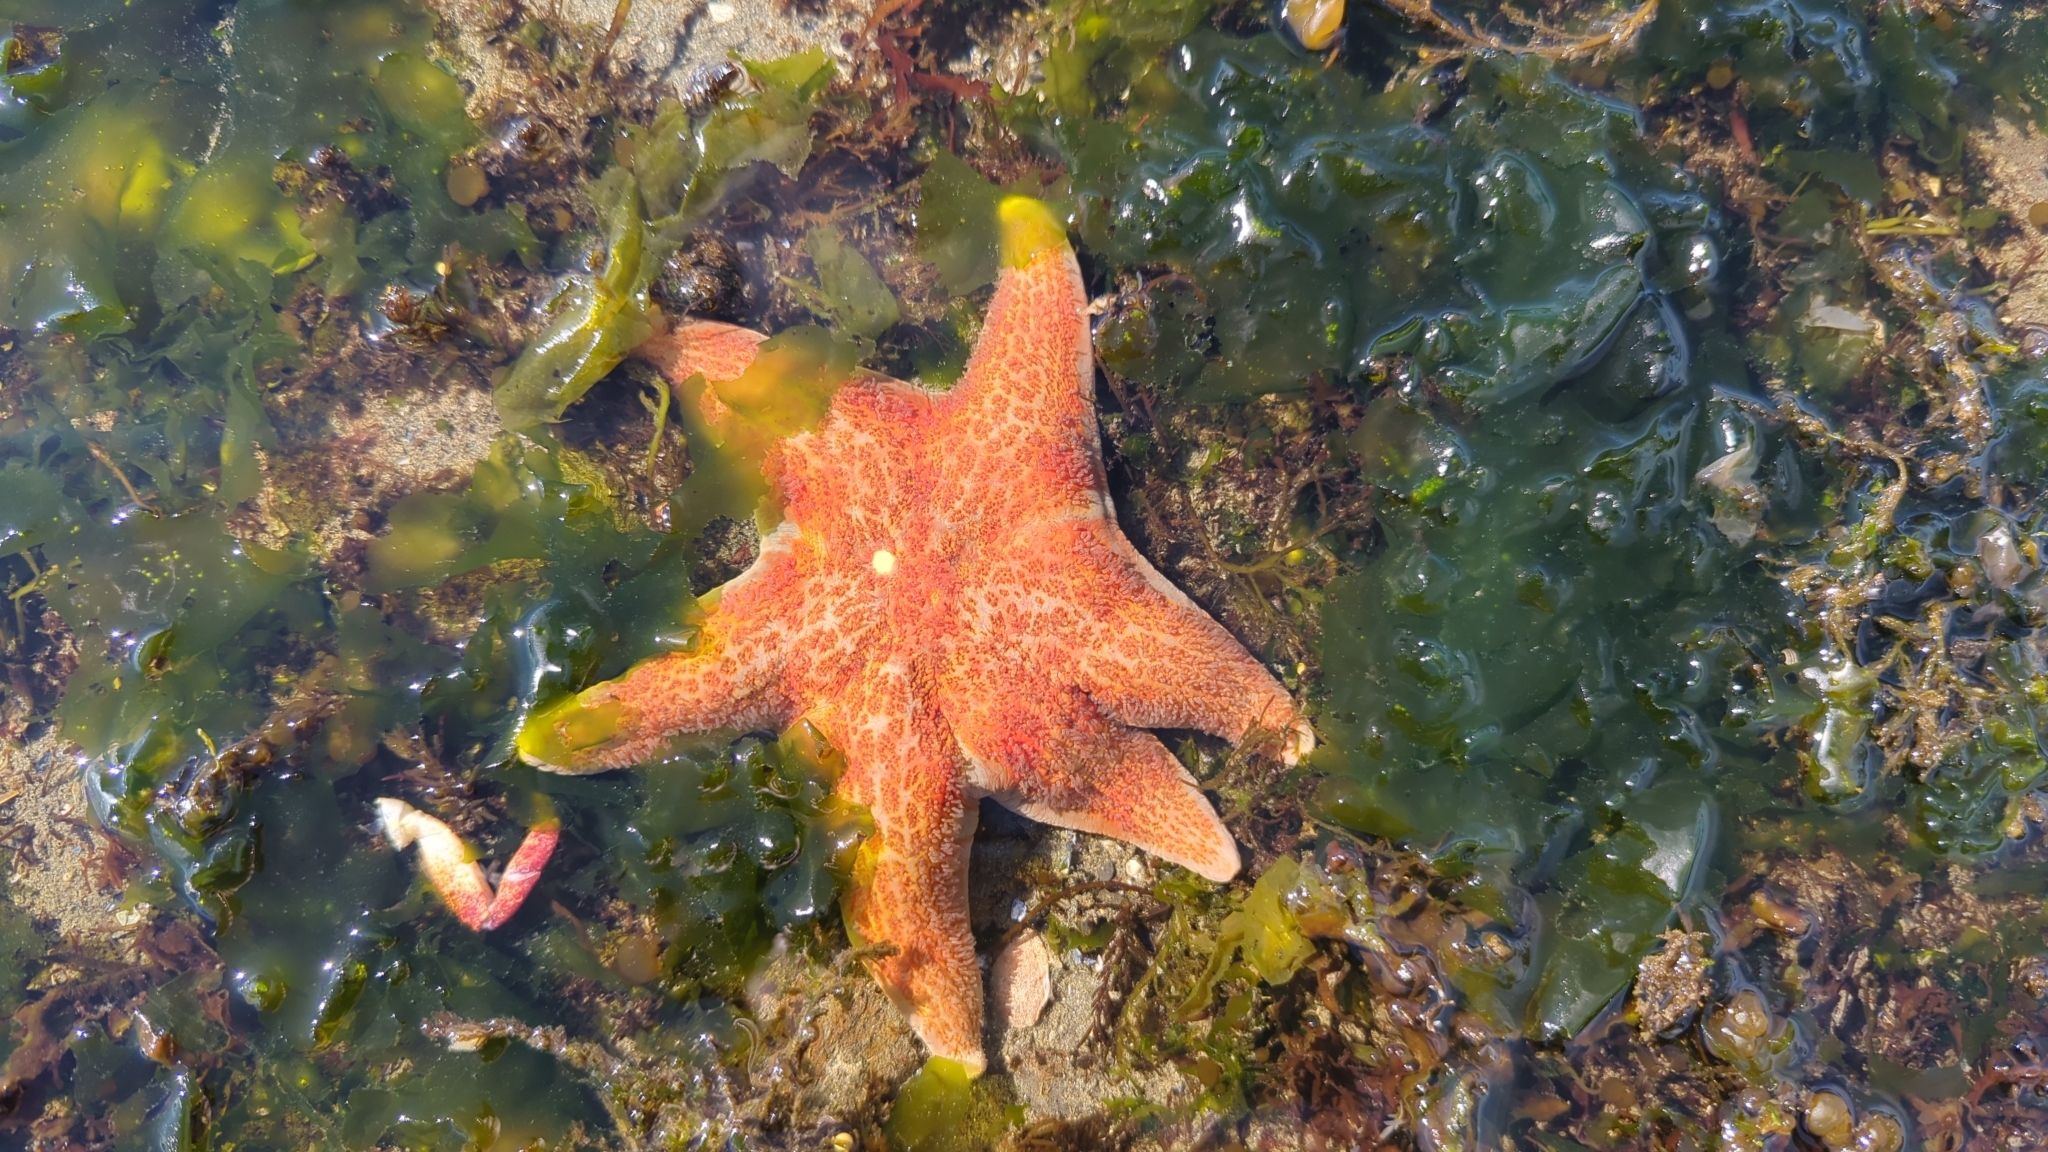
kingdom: Animalia
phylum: Echinodermata
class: Asteroidea
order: Valvatida
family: Asteropseidae
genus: Dermasterias
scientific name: Dermasterias imbricata
